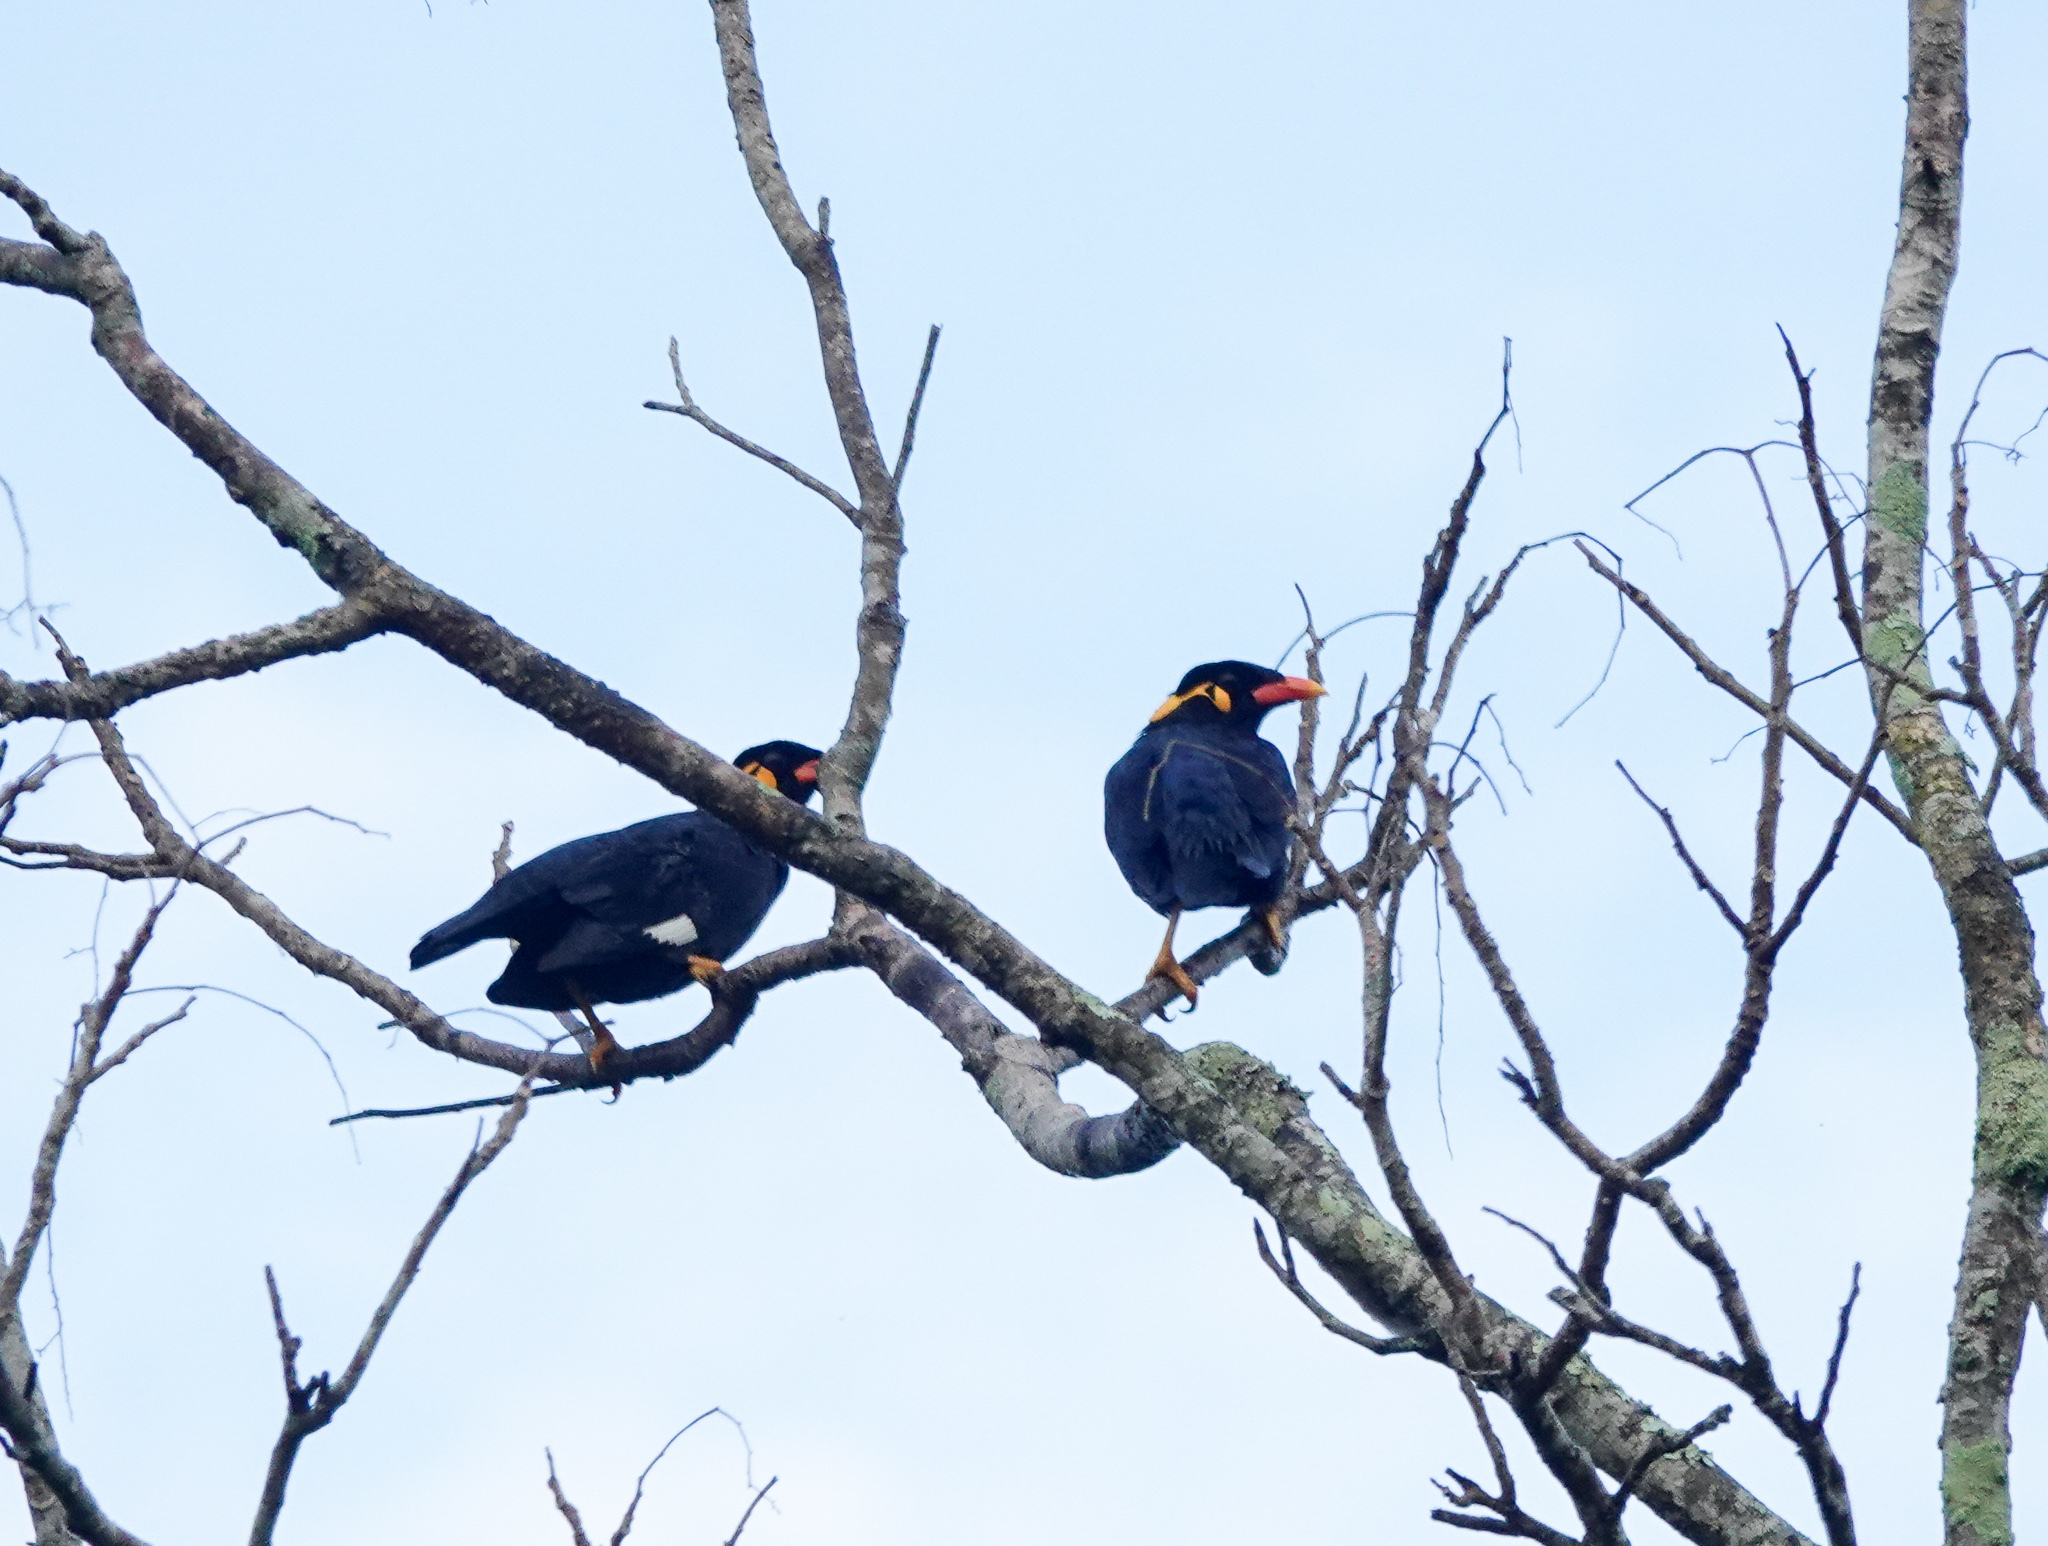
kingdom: Animalia
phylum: Chordata
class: Aves
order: Passeriformes
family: Sturnidae
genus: Gracula
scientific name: Gracula religiosa
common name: Common hill myna
